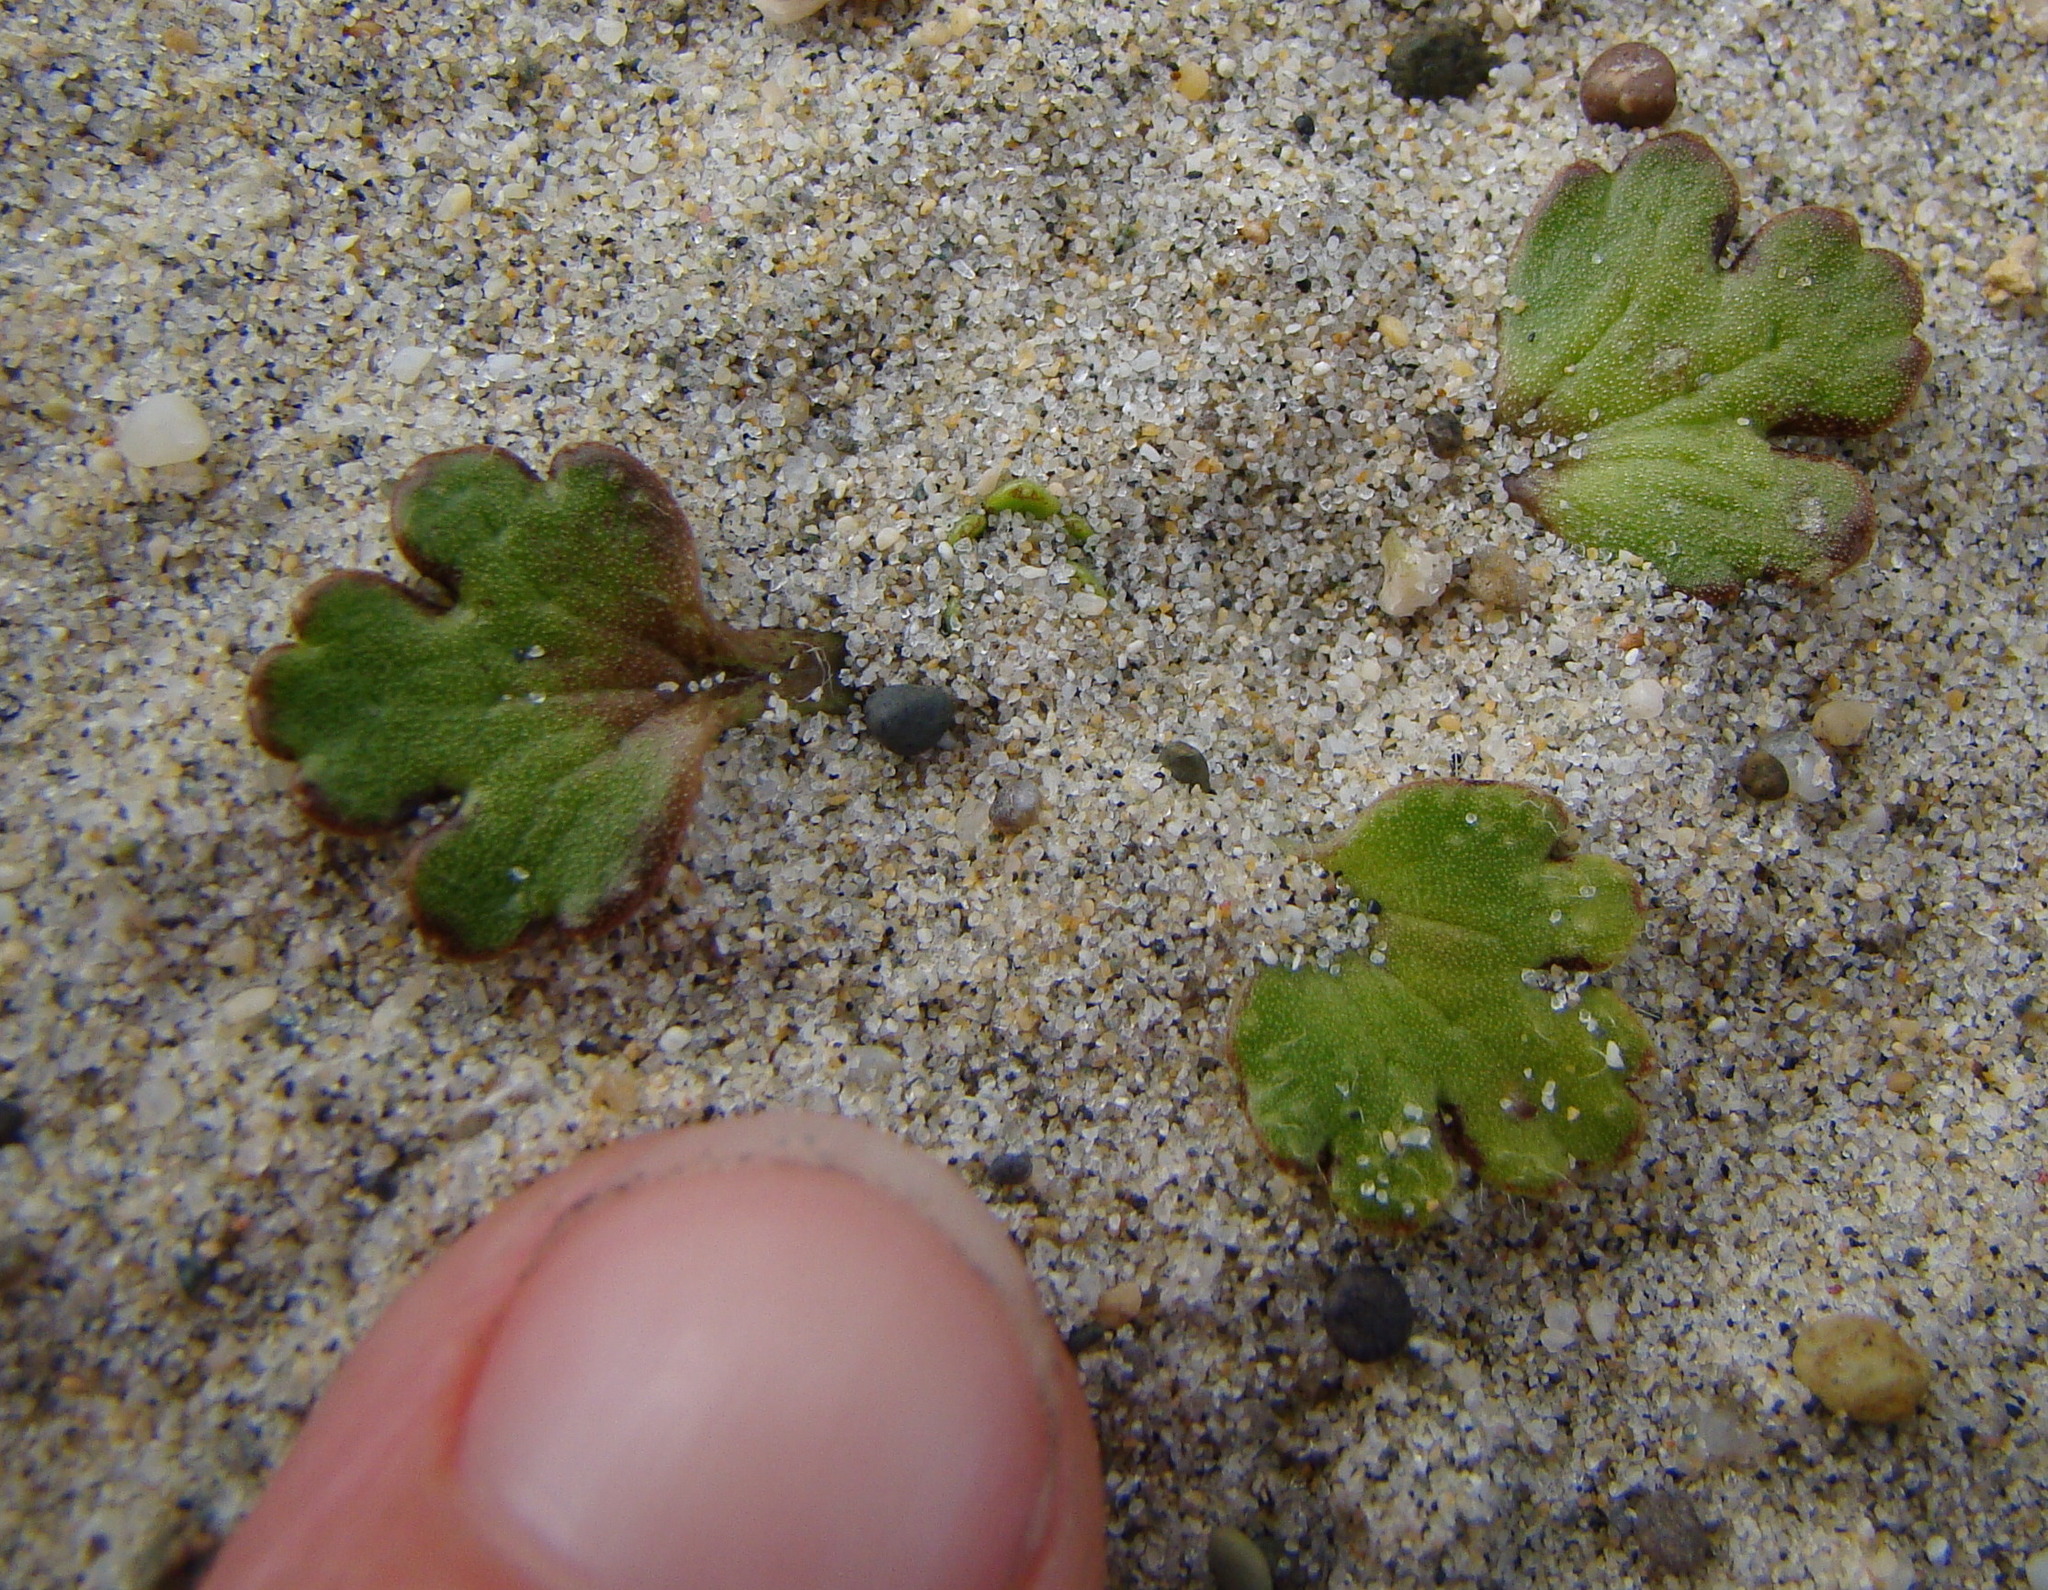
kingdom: Plantae
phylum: Tracheophyta
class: Magnoliopsida
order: Ranunculales
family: Ranunculaceae
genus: Ranunculus
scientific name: Ranunculus recens
